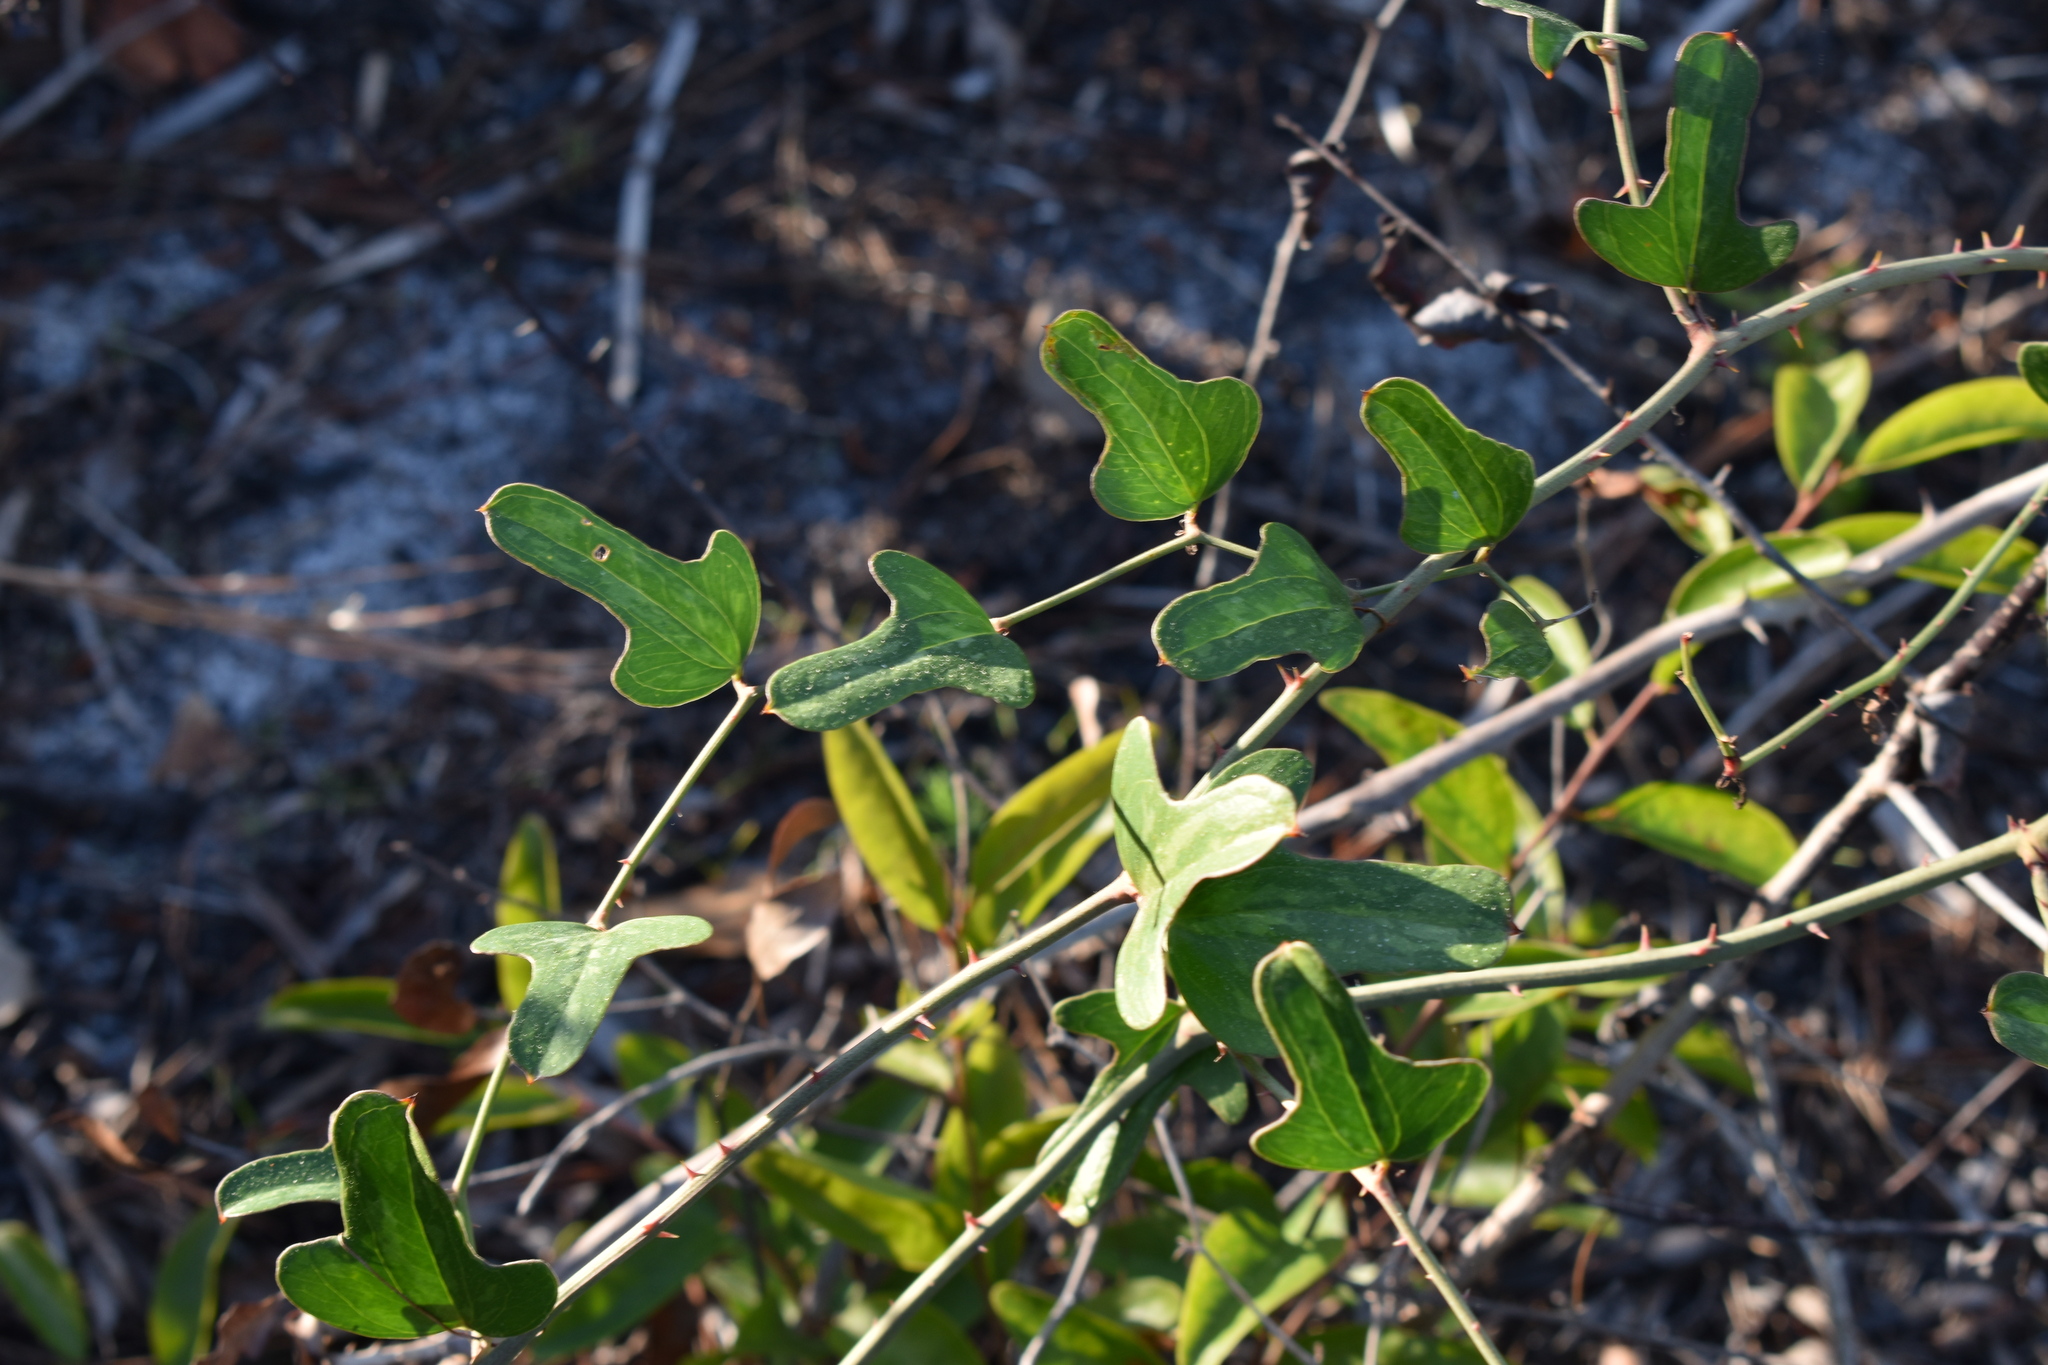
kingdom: Plantae
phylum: Tracheophyta
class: Liliopsida
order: Liliales
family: Smilacaceae
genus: Smilax
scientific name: Smilax auriculata
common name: Wild bamboo
